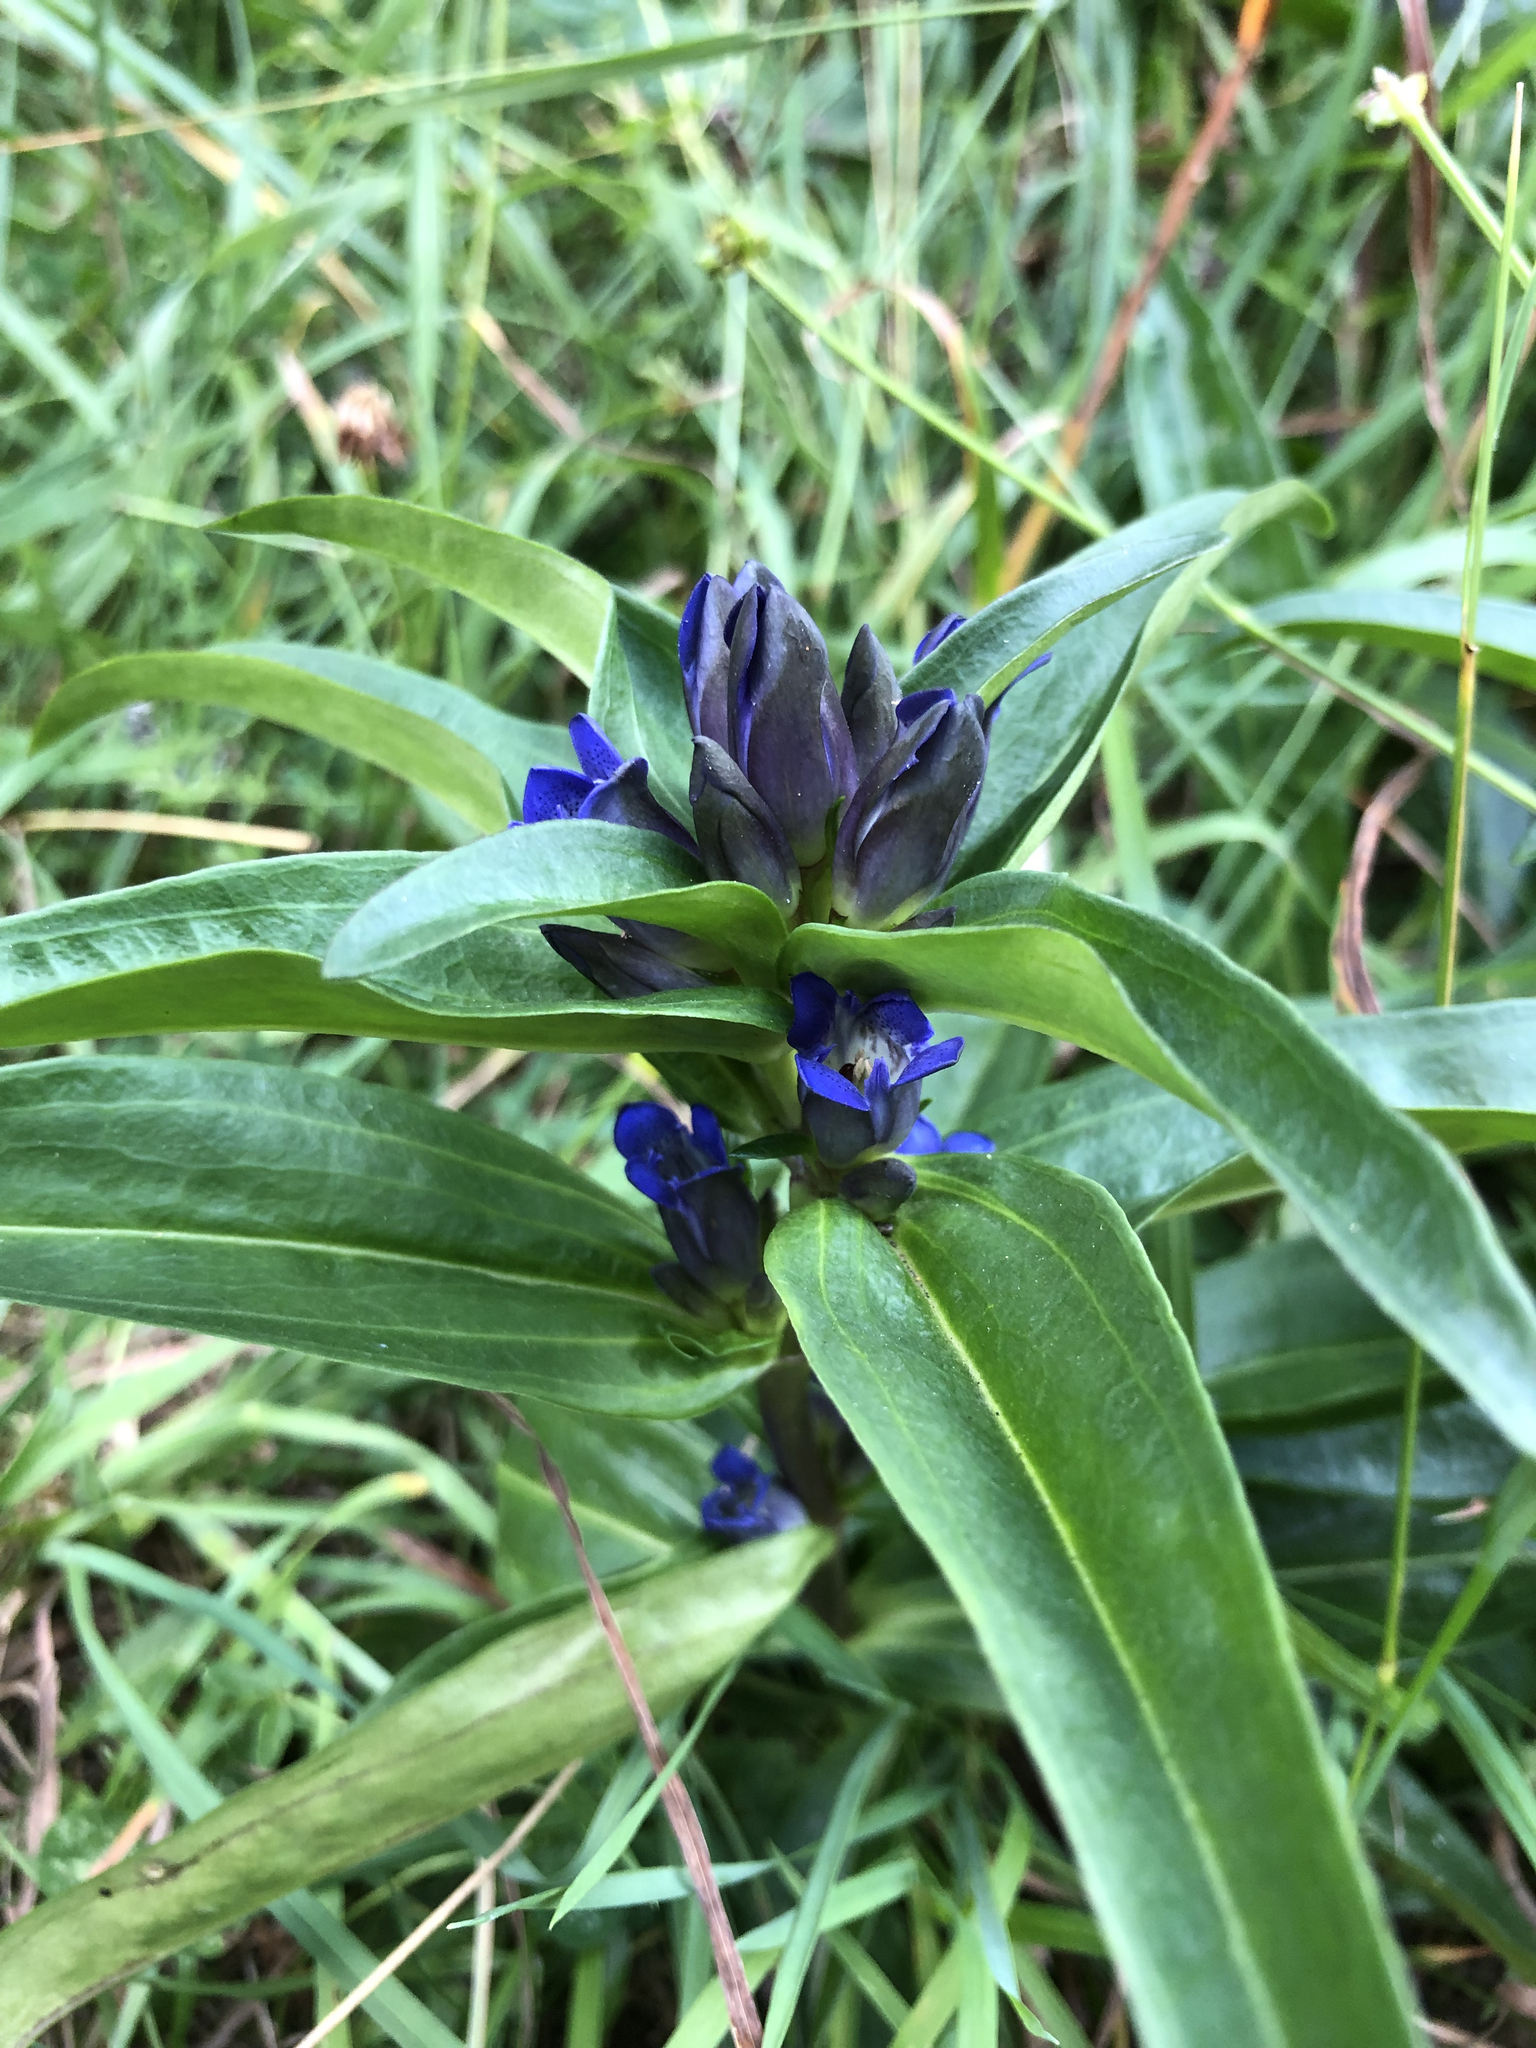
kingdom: Plantae
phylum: Tracheophyta
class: Magnoliopsida
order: Gentianales
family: Gentianaceae
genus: Gentiana
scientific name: Gentiana cruciata
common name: Cross gentian
